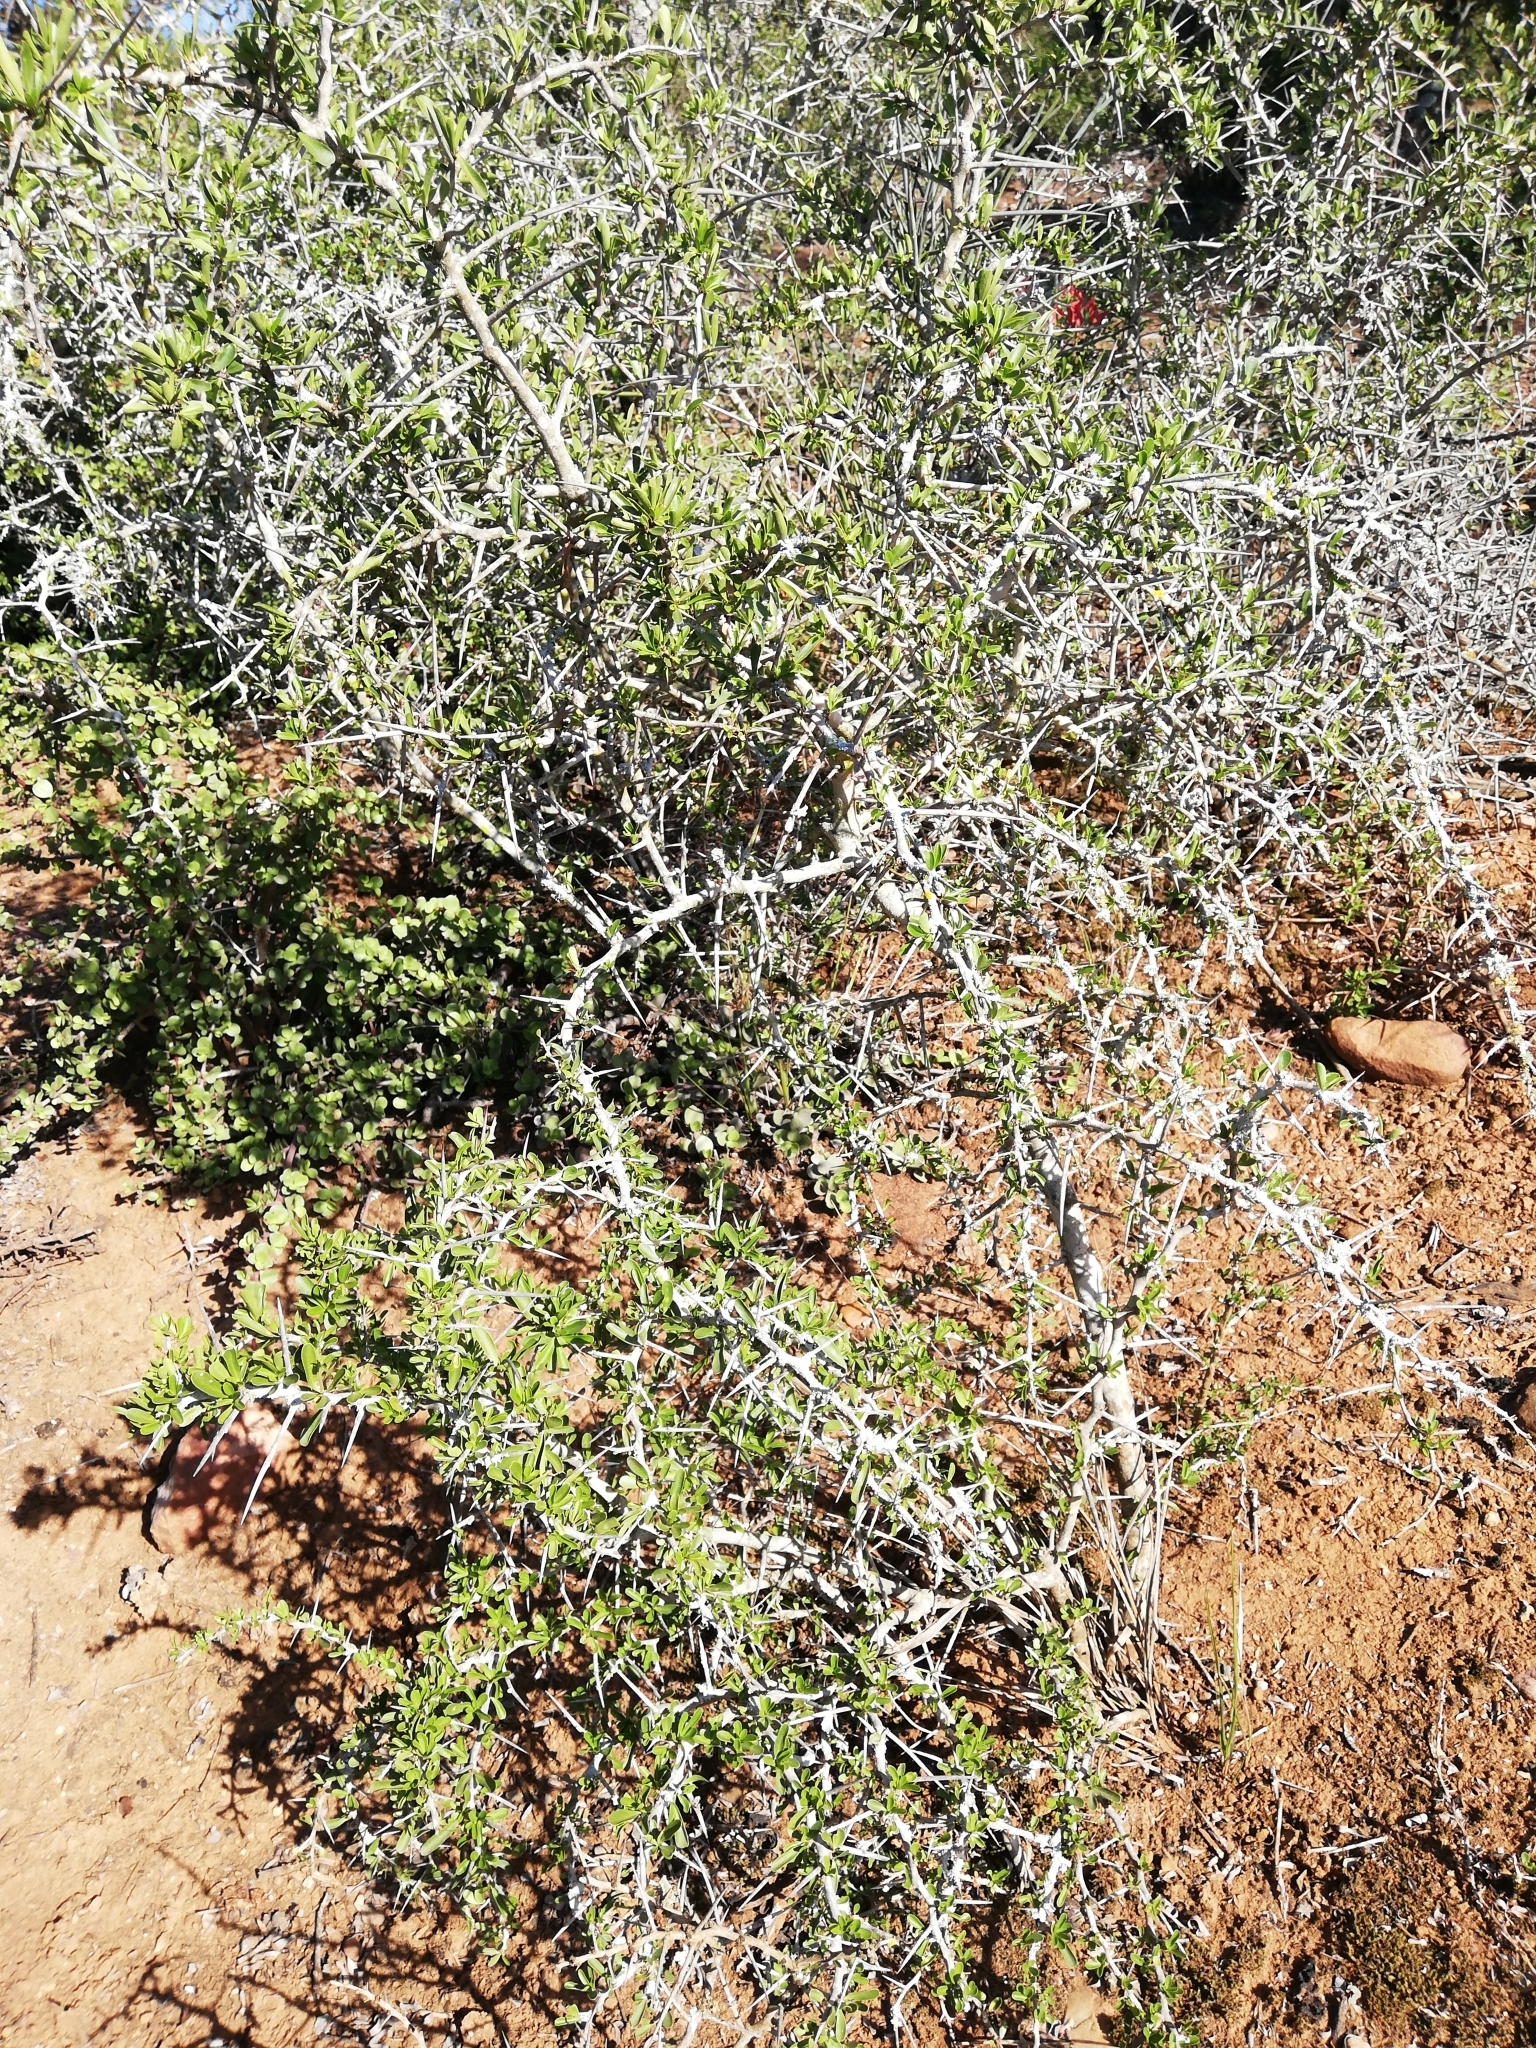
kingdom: Plantae
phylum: Tracheophyta
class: Magnoliopsida
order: Celastrales
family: Celastraceae
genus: Gymnosporia
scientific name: Gymnosporia polyacantha
